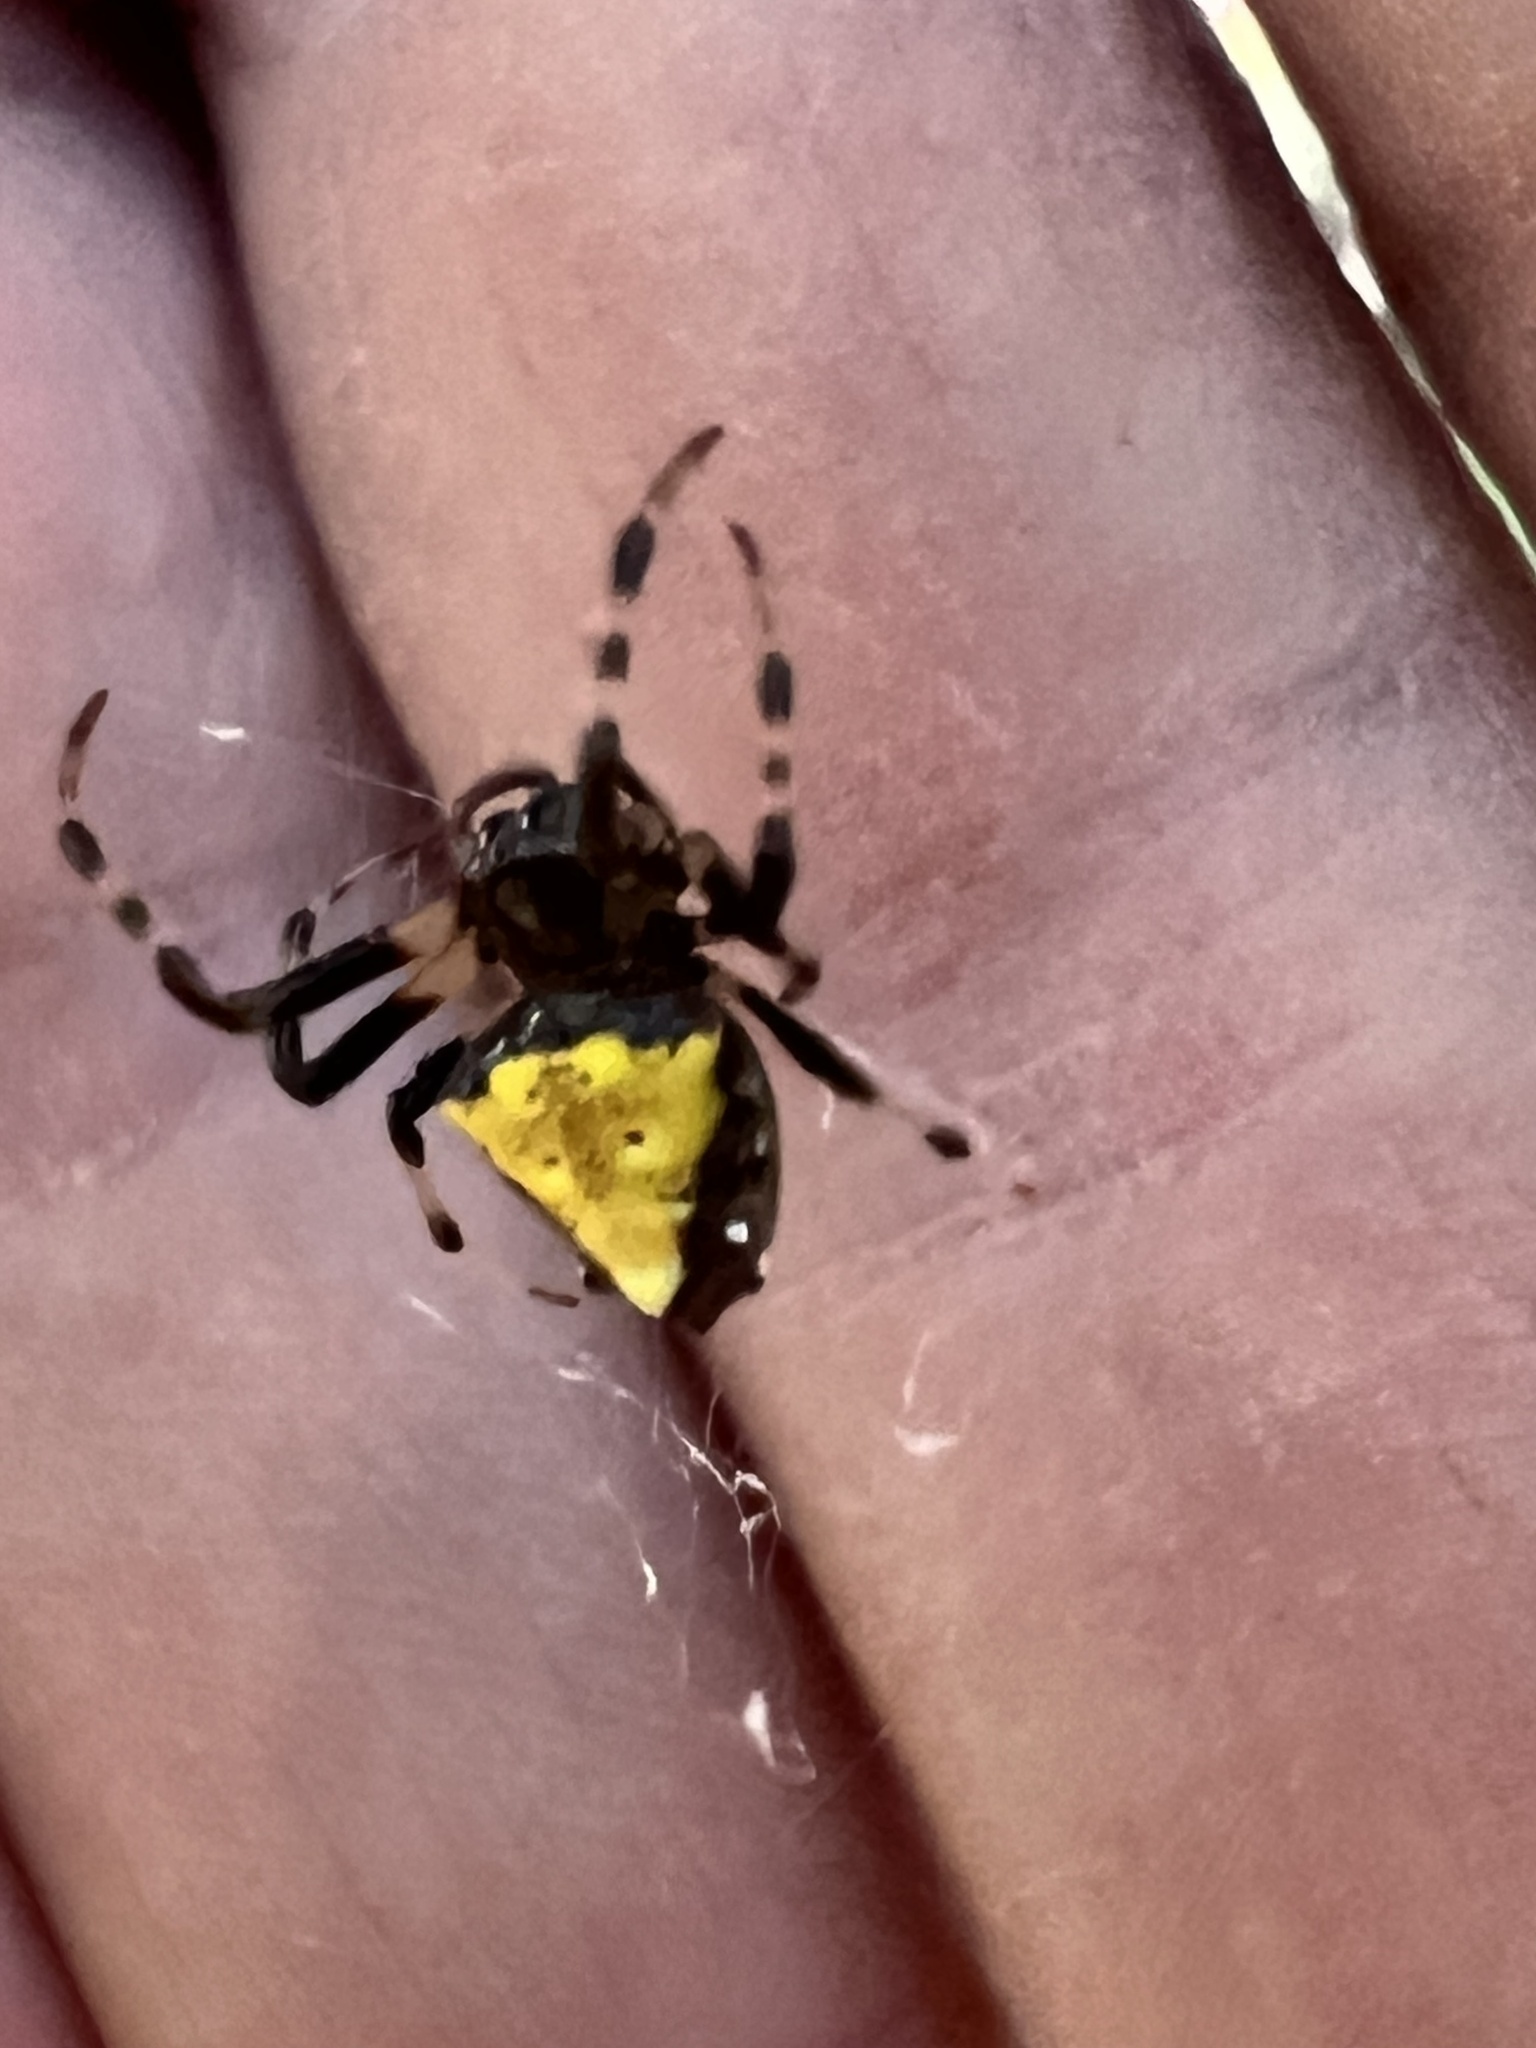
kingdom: Animalia
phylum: Arthropoda
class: Arachnida
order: Araneae
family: Araneidae
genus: Verrucosa
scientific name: Verrucosa arenata
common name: Orb weavers
